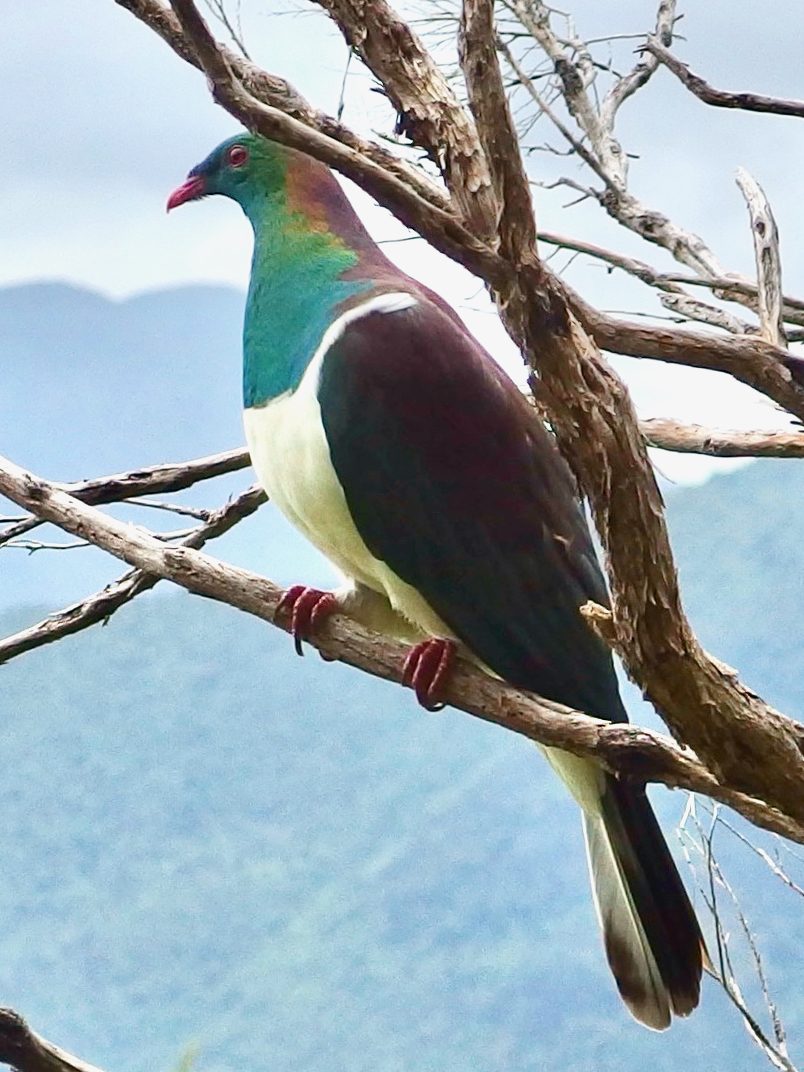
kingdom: Animalia
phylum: Chordata
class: Aves
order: Columbiformes
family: Columbidae
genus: Hemiphaga
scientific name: Hemiphaga novaeseelandiae
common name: New zealand pigeon
